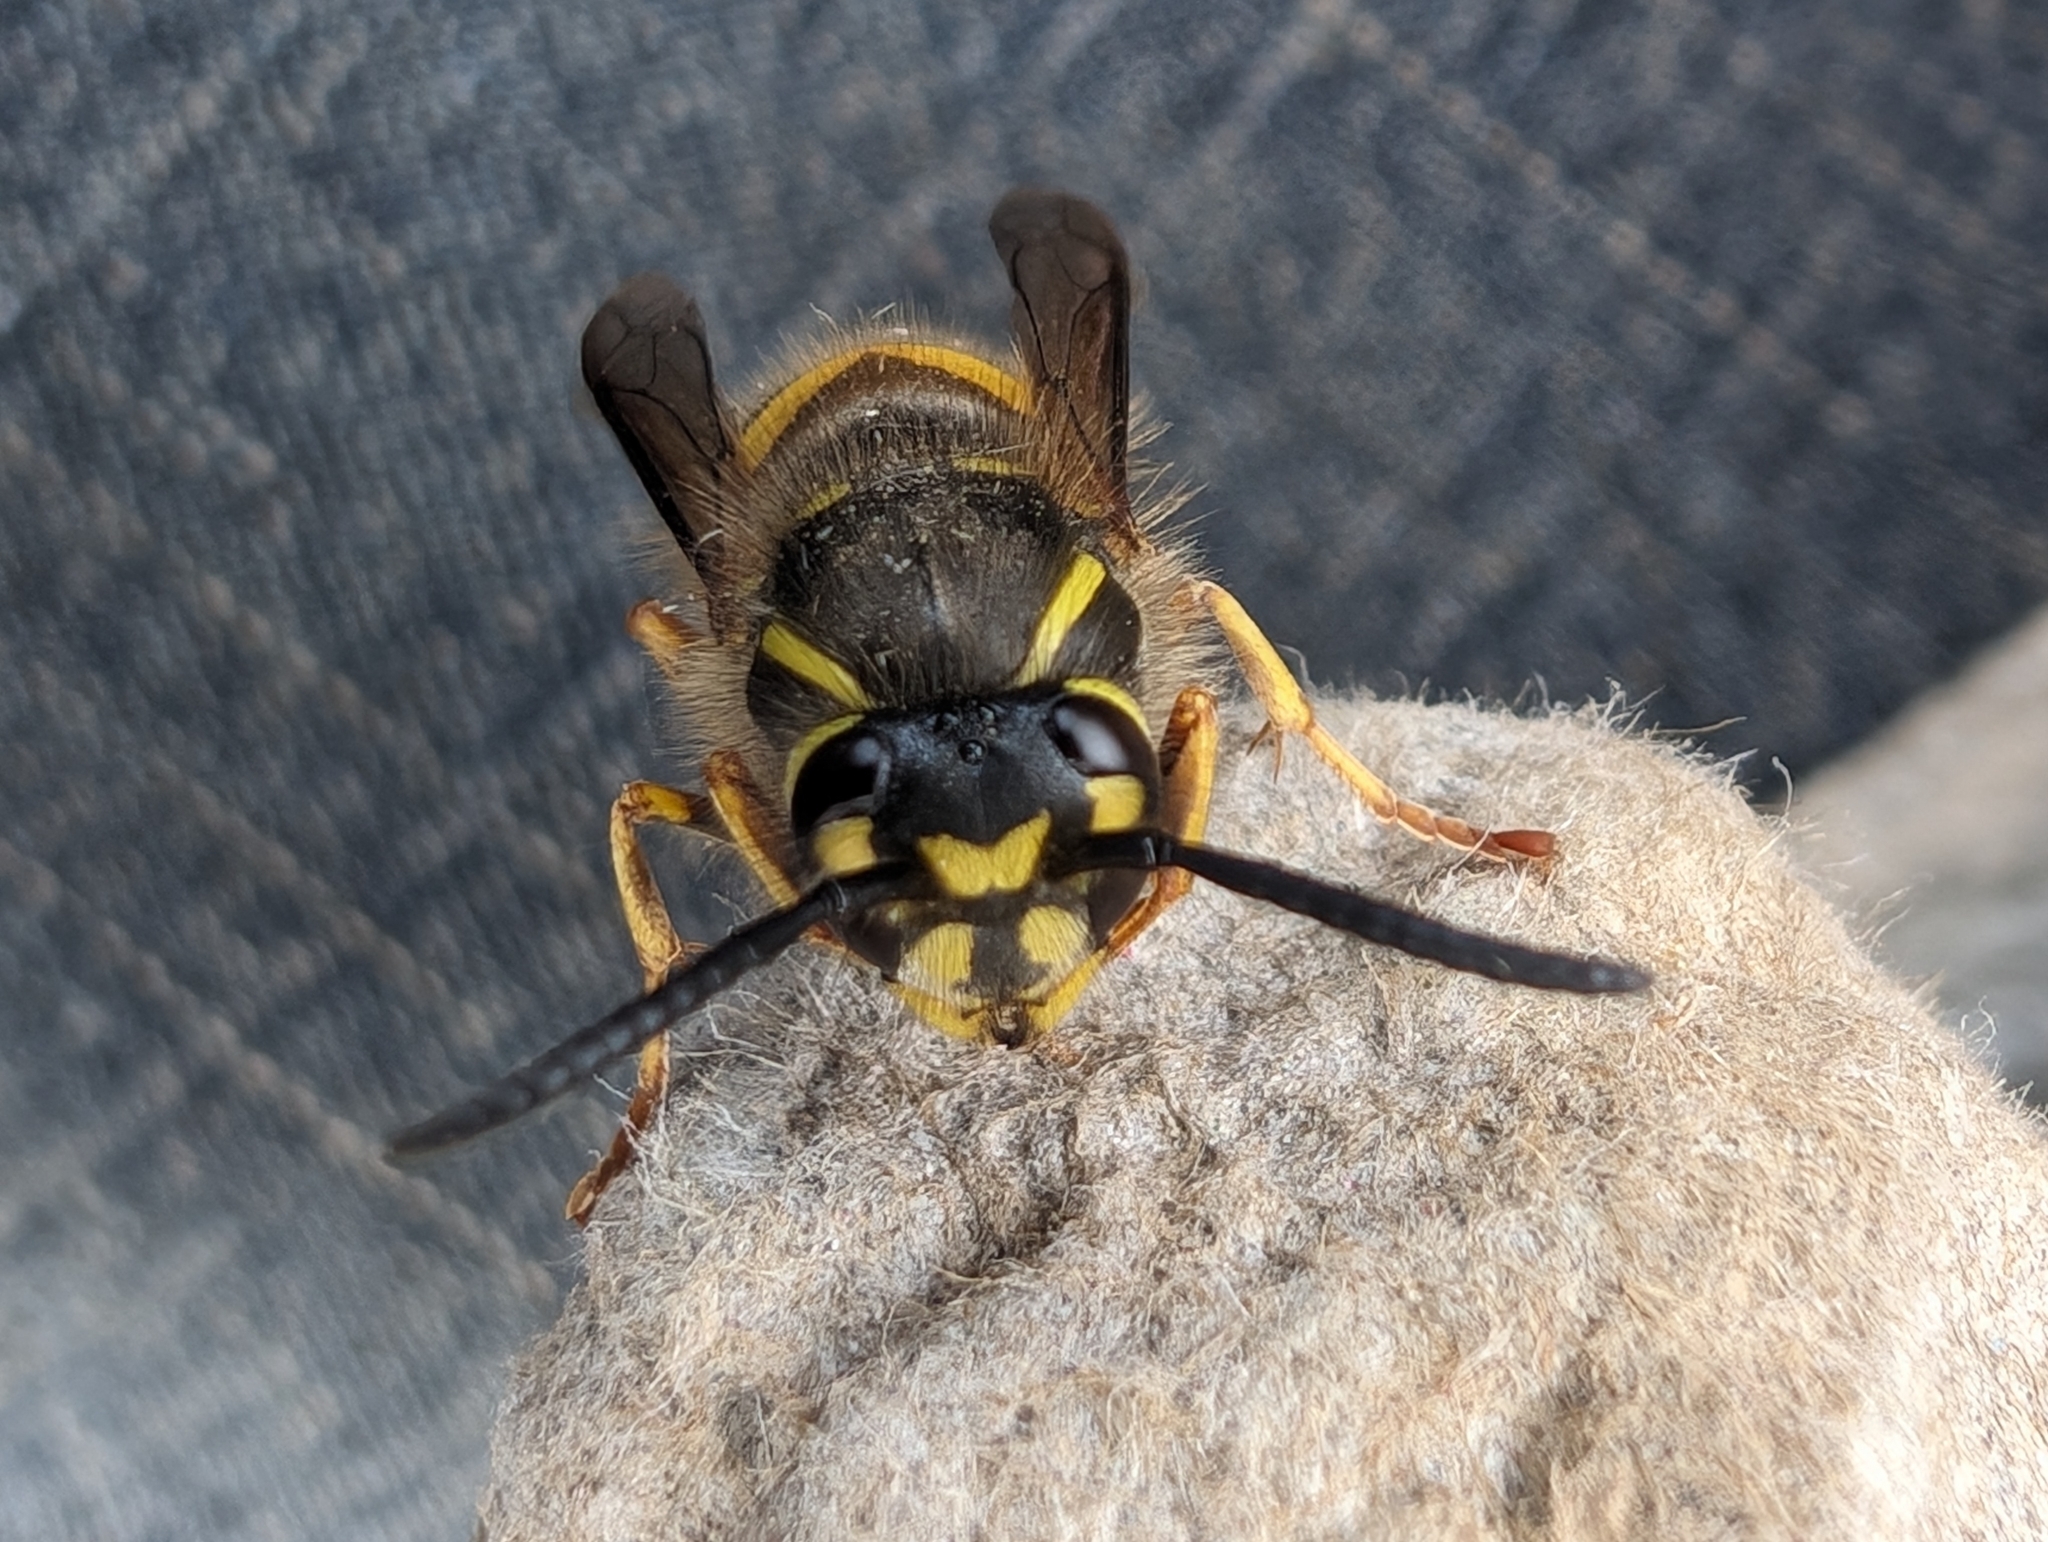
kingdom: Animalia
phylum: Arthropoda
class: Insecta
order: Hymenoptera
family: Vespidae
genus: Vespula
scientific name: Vespula vulgaris
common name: Common wasp
